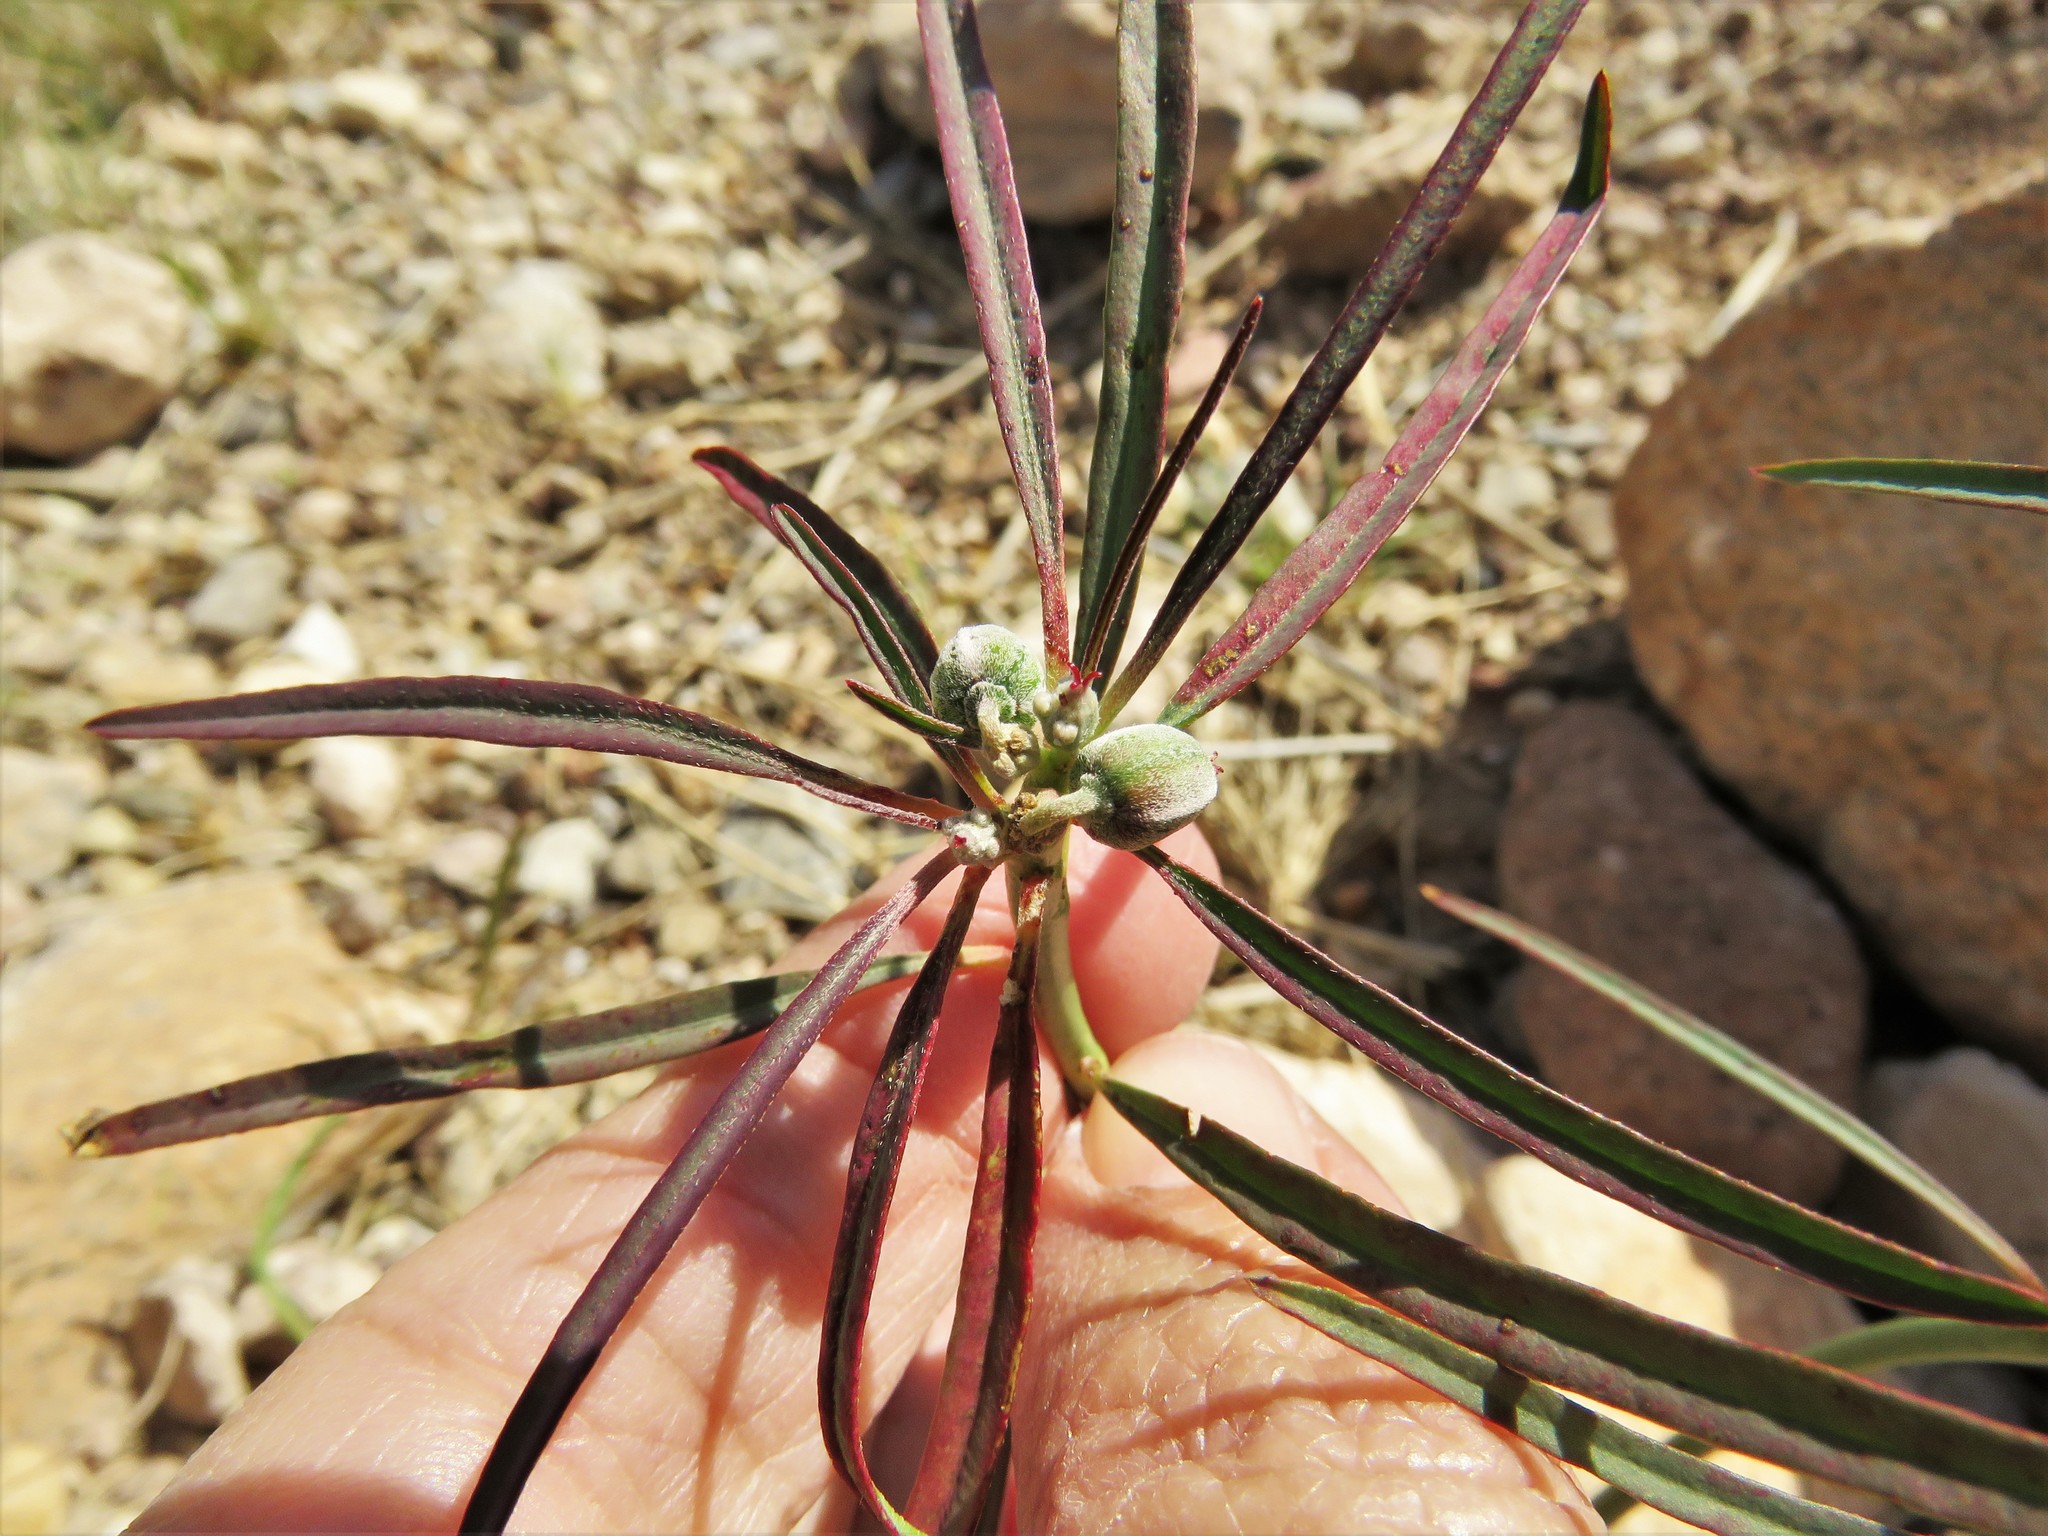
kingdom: Plantae
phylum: Tracheophyta
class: Magnoliopsida
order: Malpighiales
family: Euphorbiaceae
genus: Euphorbia
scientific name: Euphorbia eriantha
